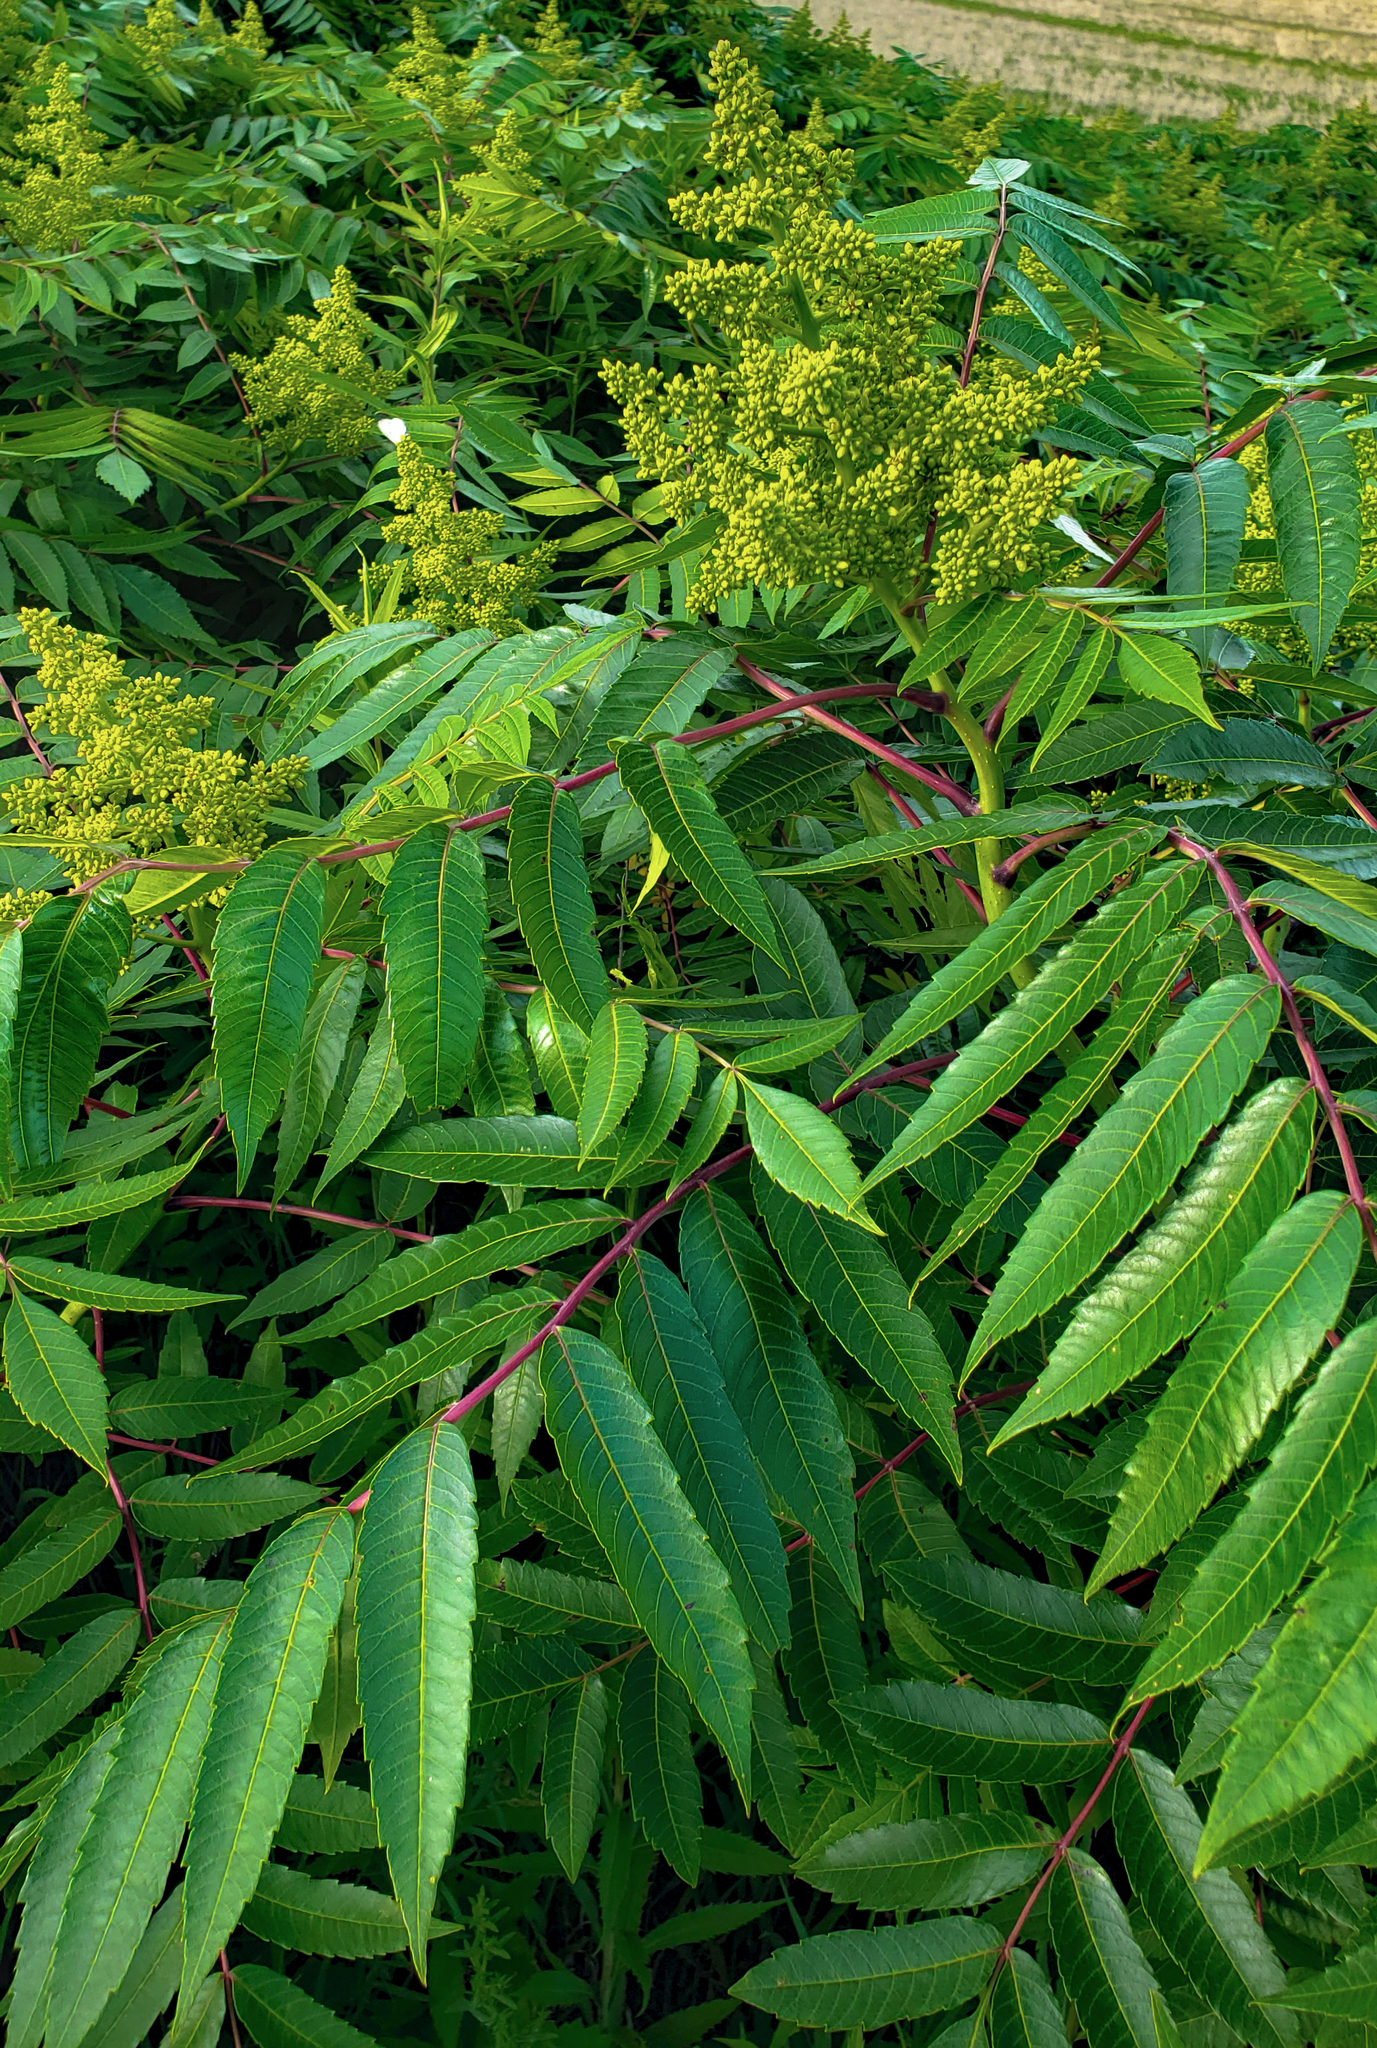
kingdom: Plantae
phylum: Tracheophyta
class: Magnoliopsida
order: Sapindales
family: Anacardiaceae
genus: Rhus
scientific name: Rhus glabra
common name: Scarlet sumac
